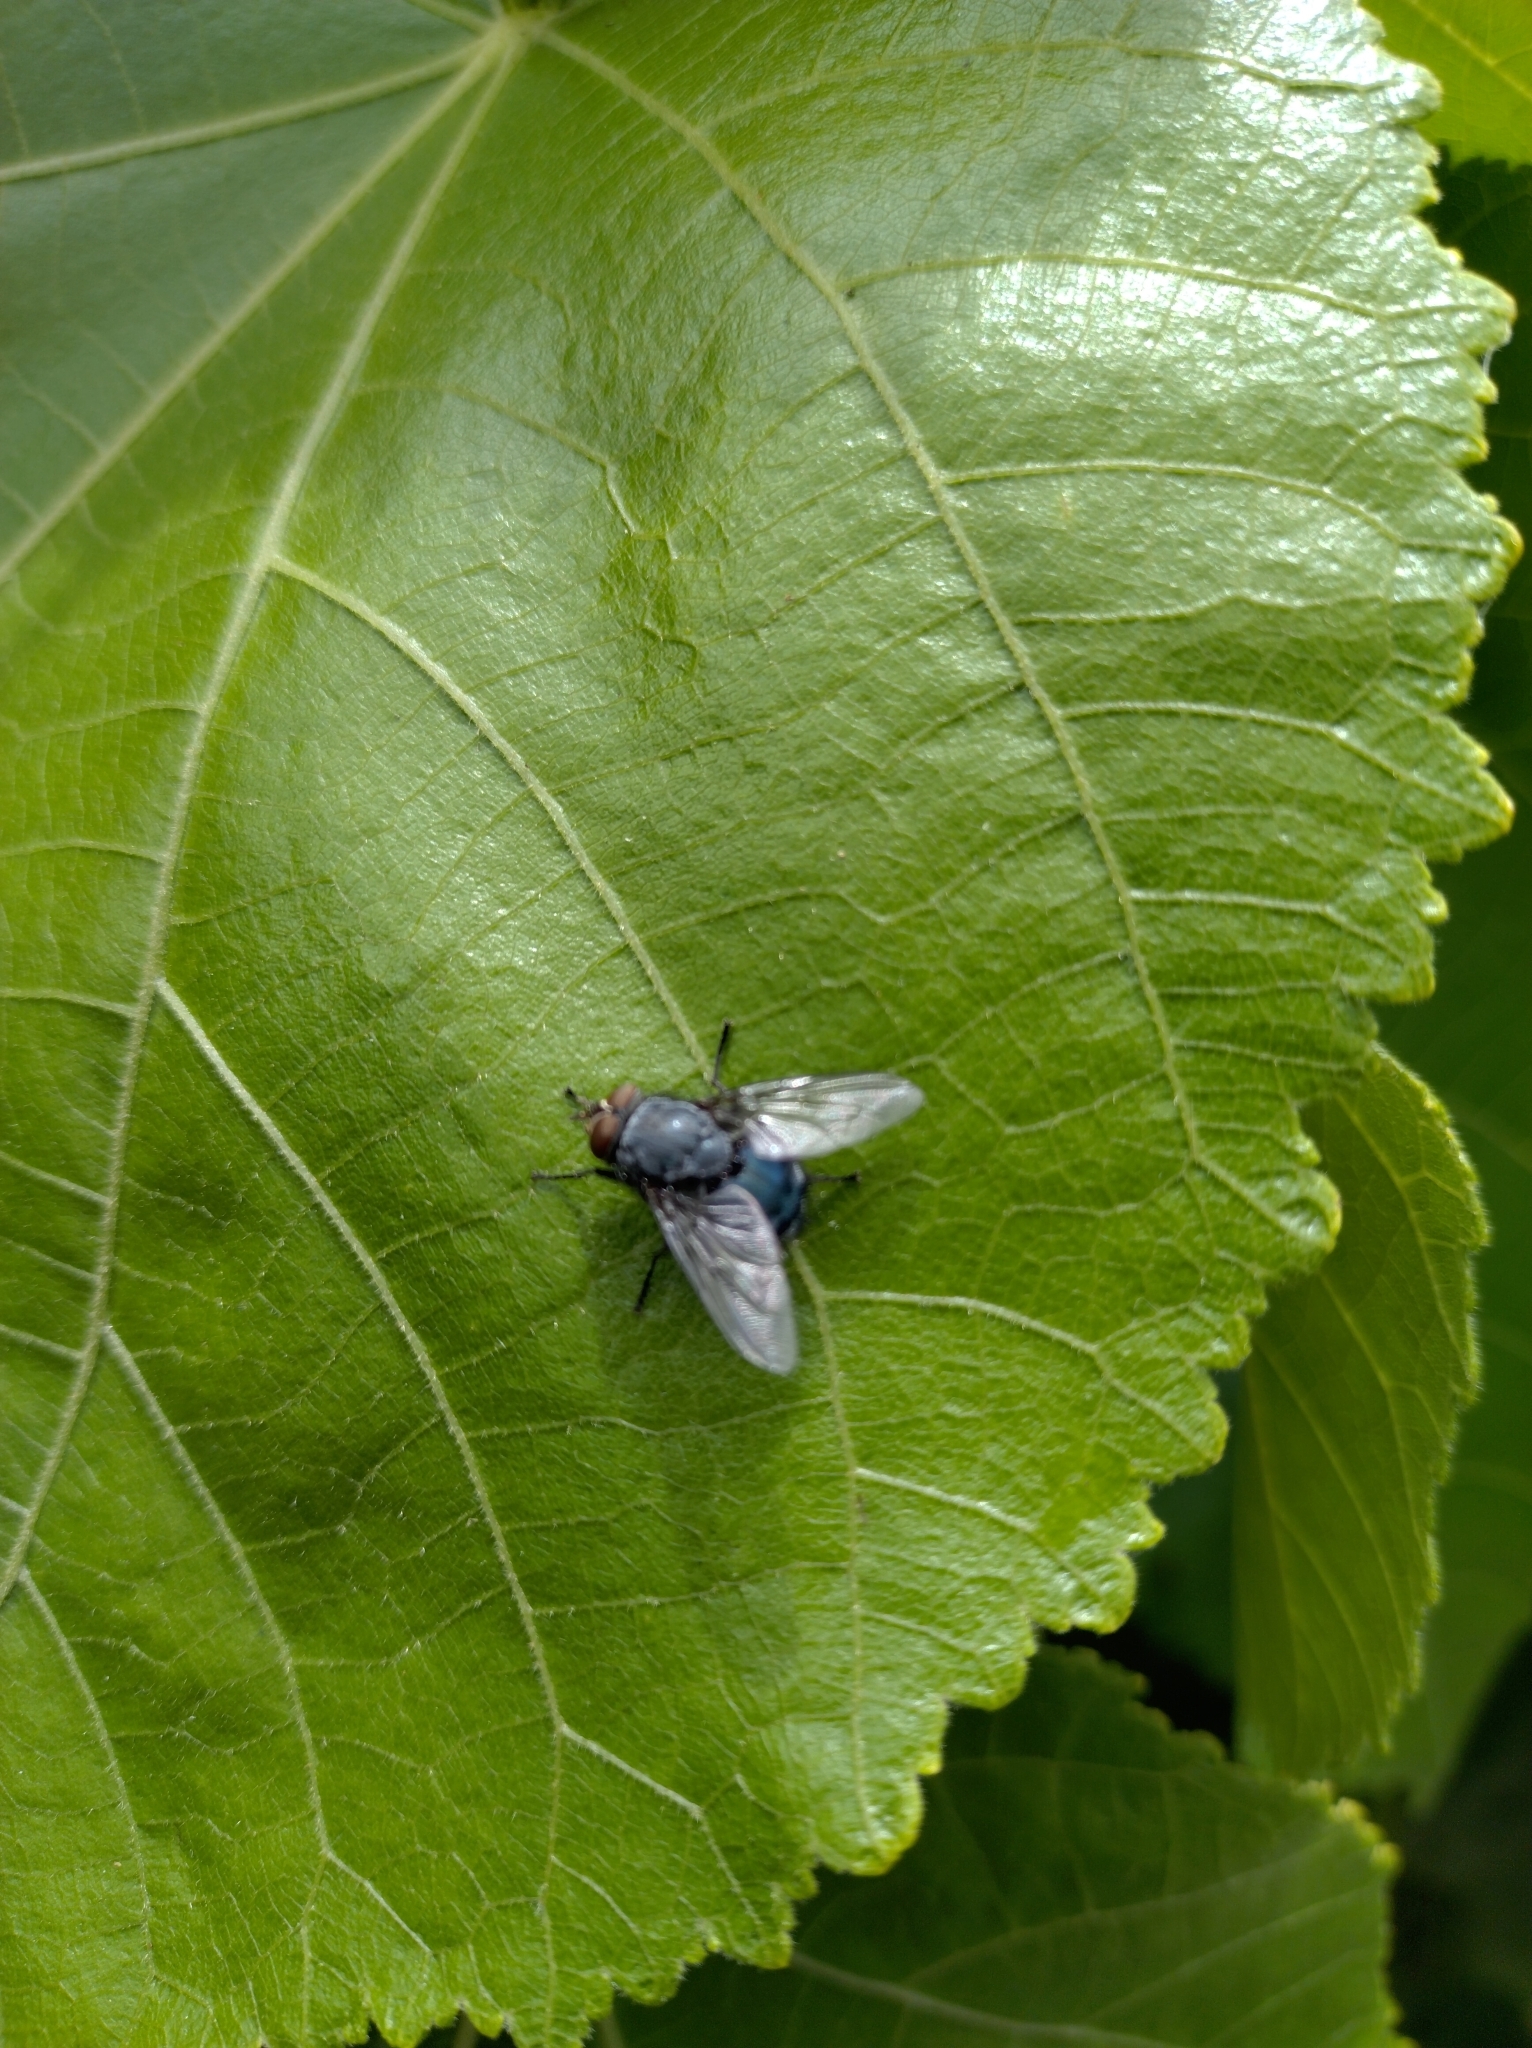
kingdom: Animalia
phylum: Arthropoda
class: Insecta
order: Diptera
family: Calliphoridae
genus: Calliphora
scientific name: Calliphora vicina
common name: Common blow flie
